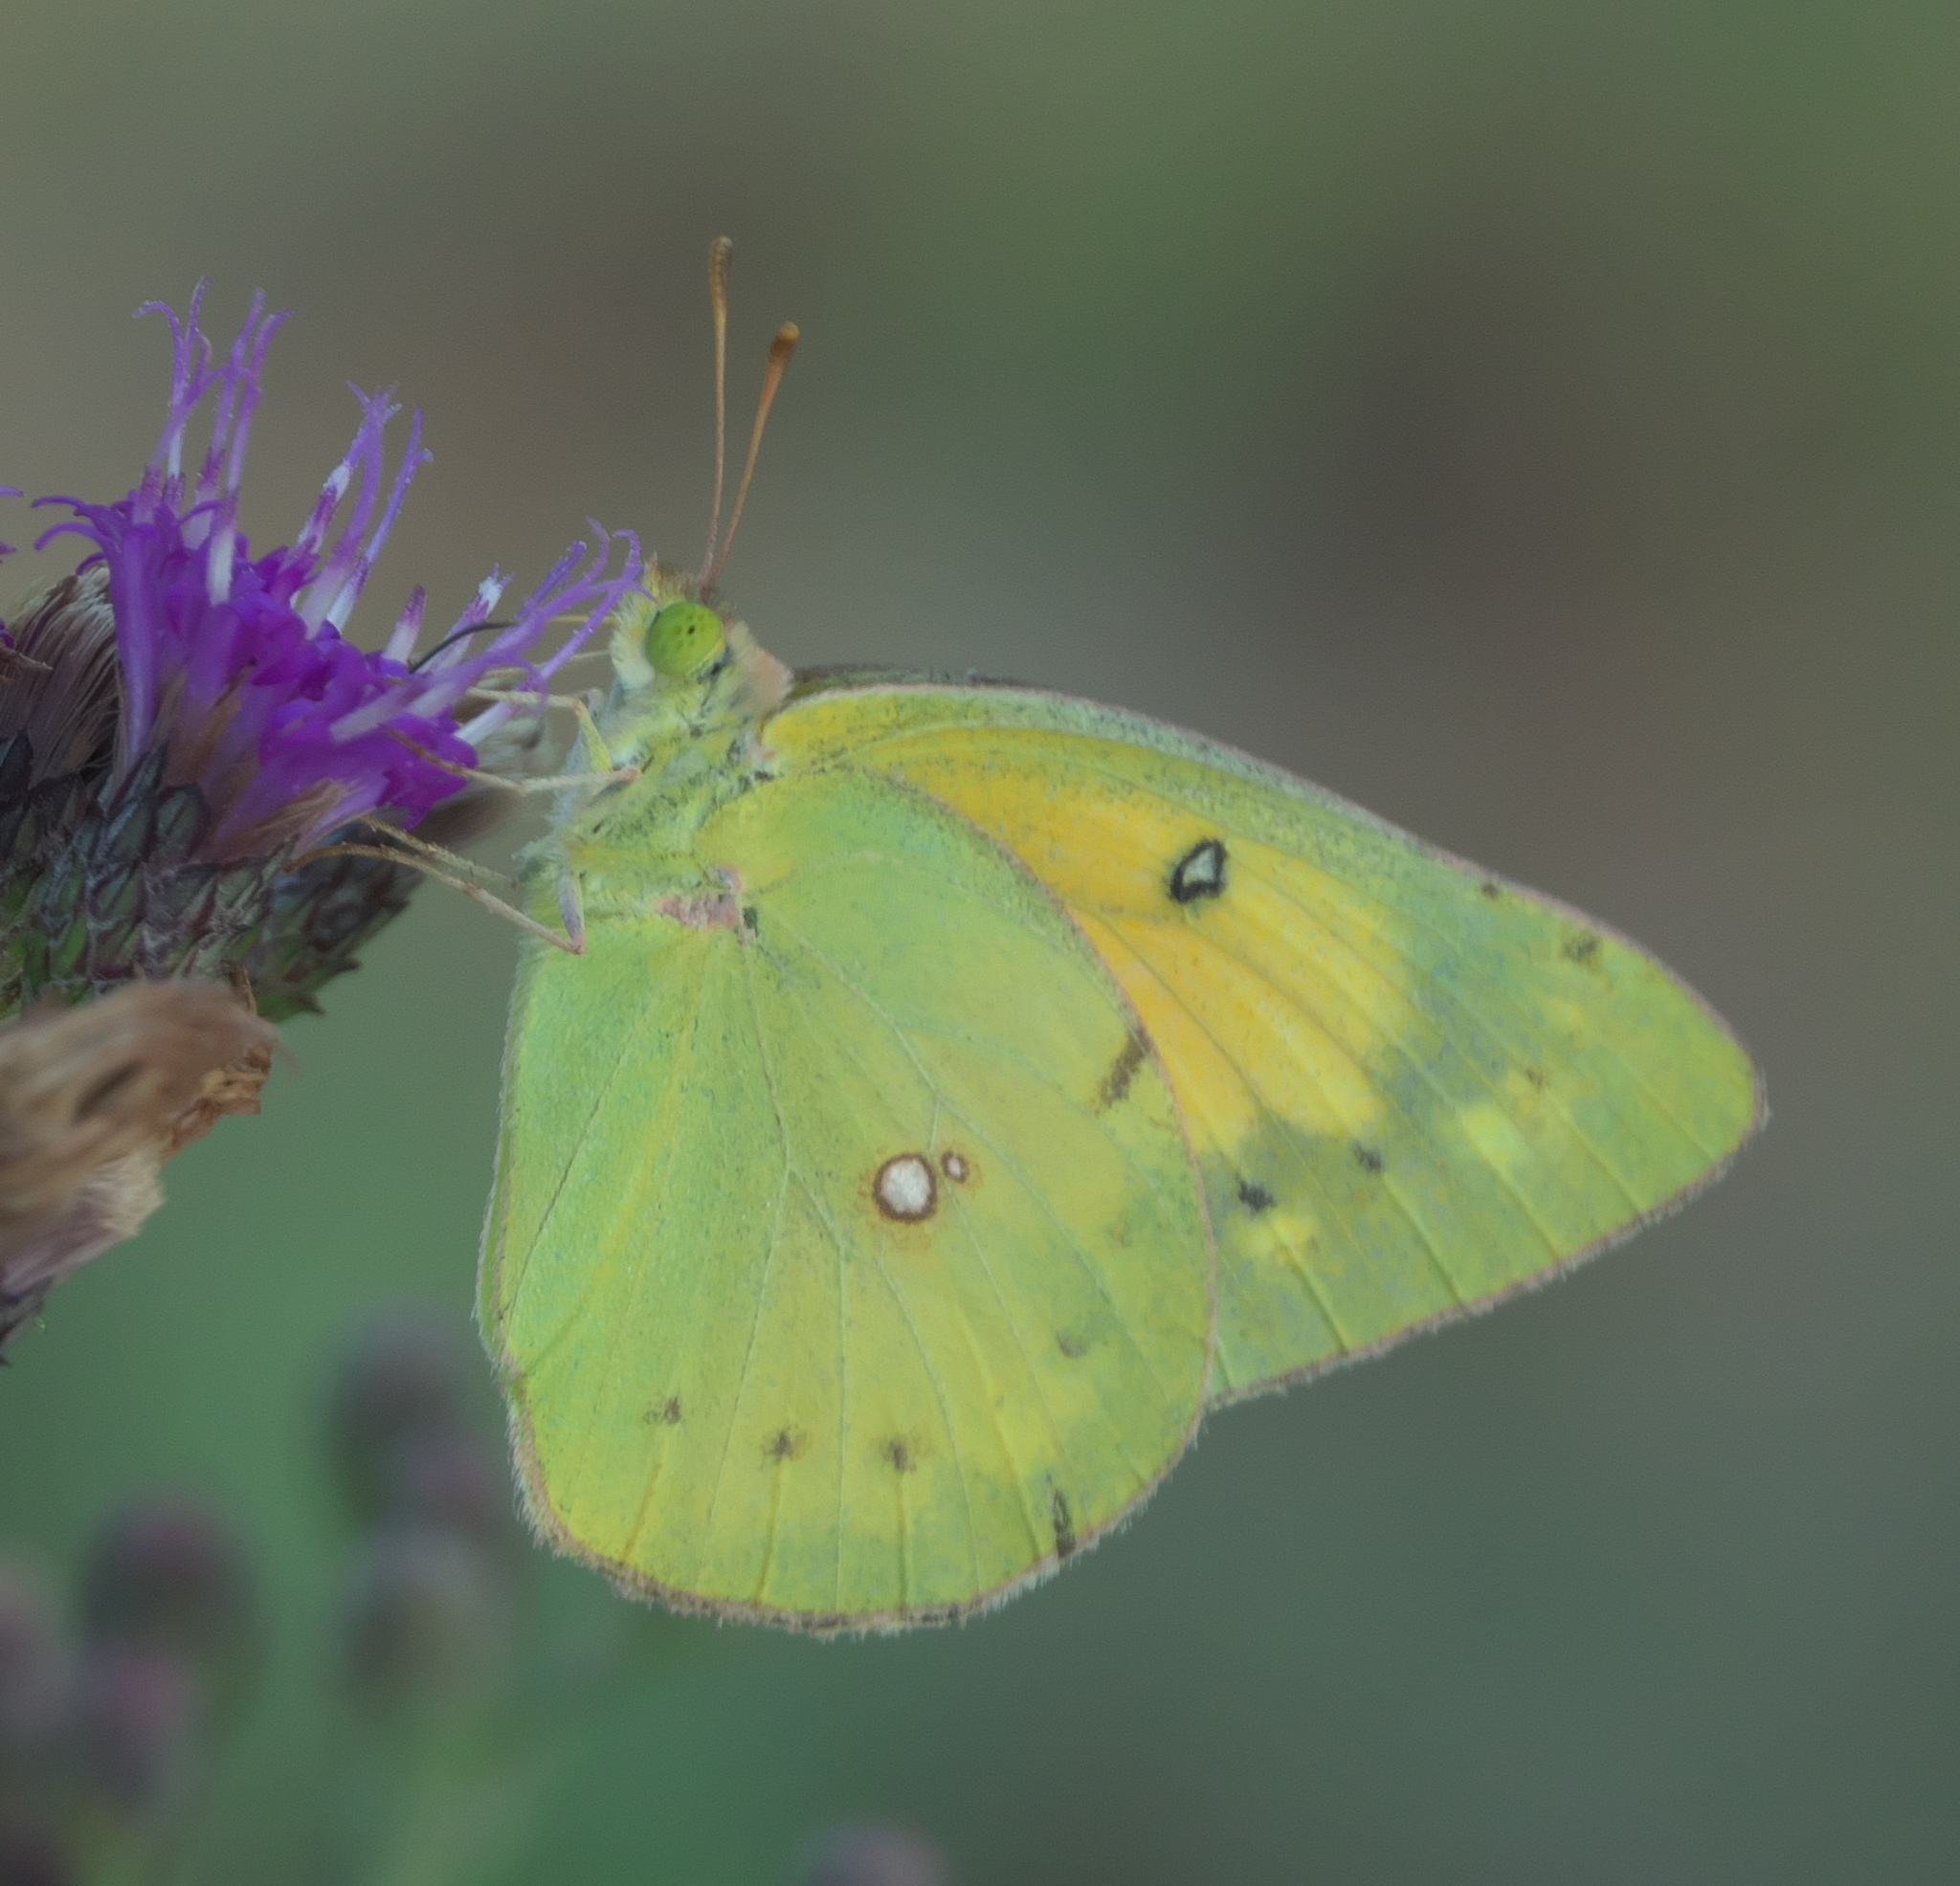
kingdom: Animalia
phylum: Arthropoda
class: Insecta
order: Lepidoptera
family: Pieridae
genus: Colias
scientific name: Colias eurytheme
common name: Alfalfa butterfly
